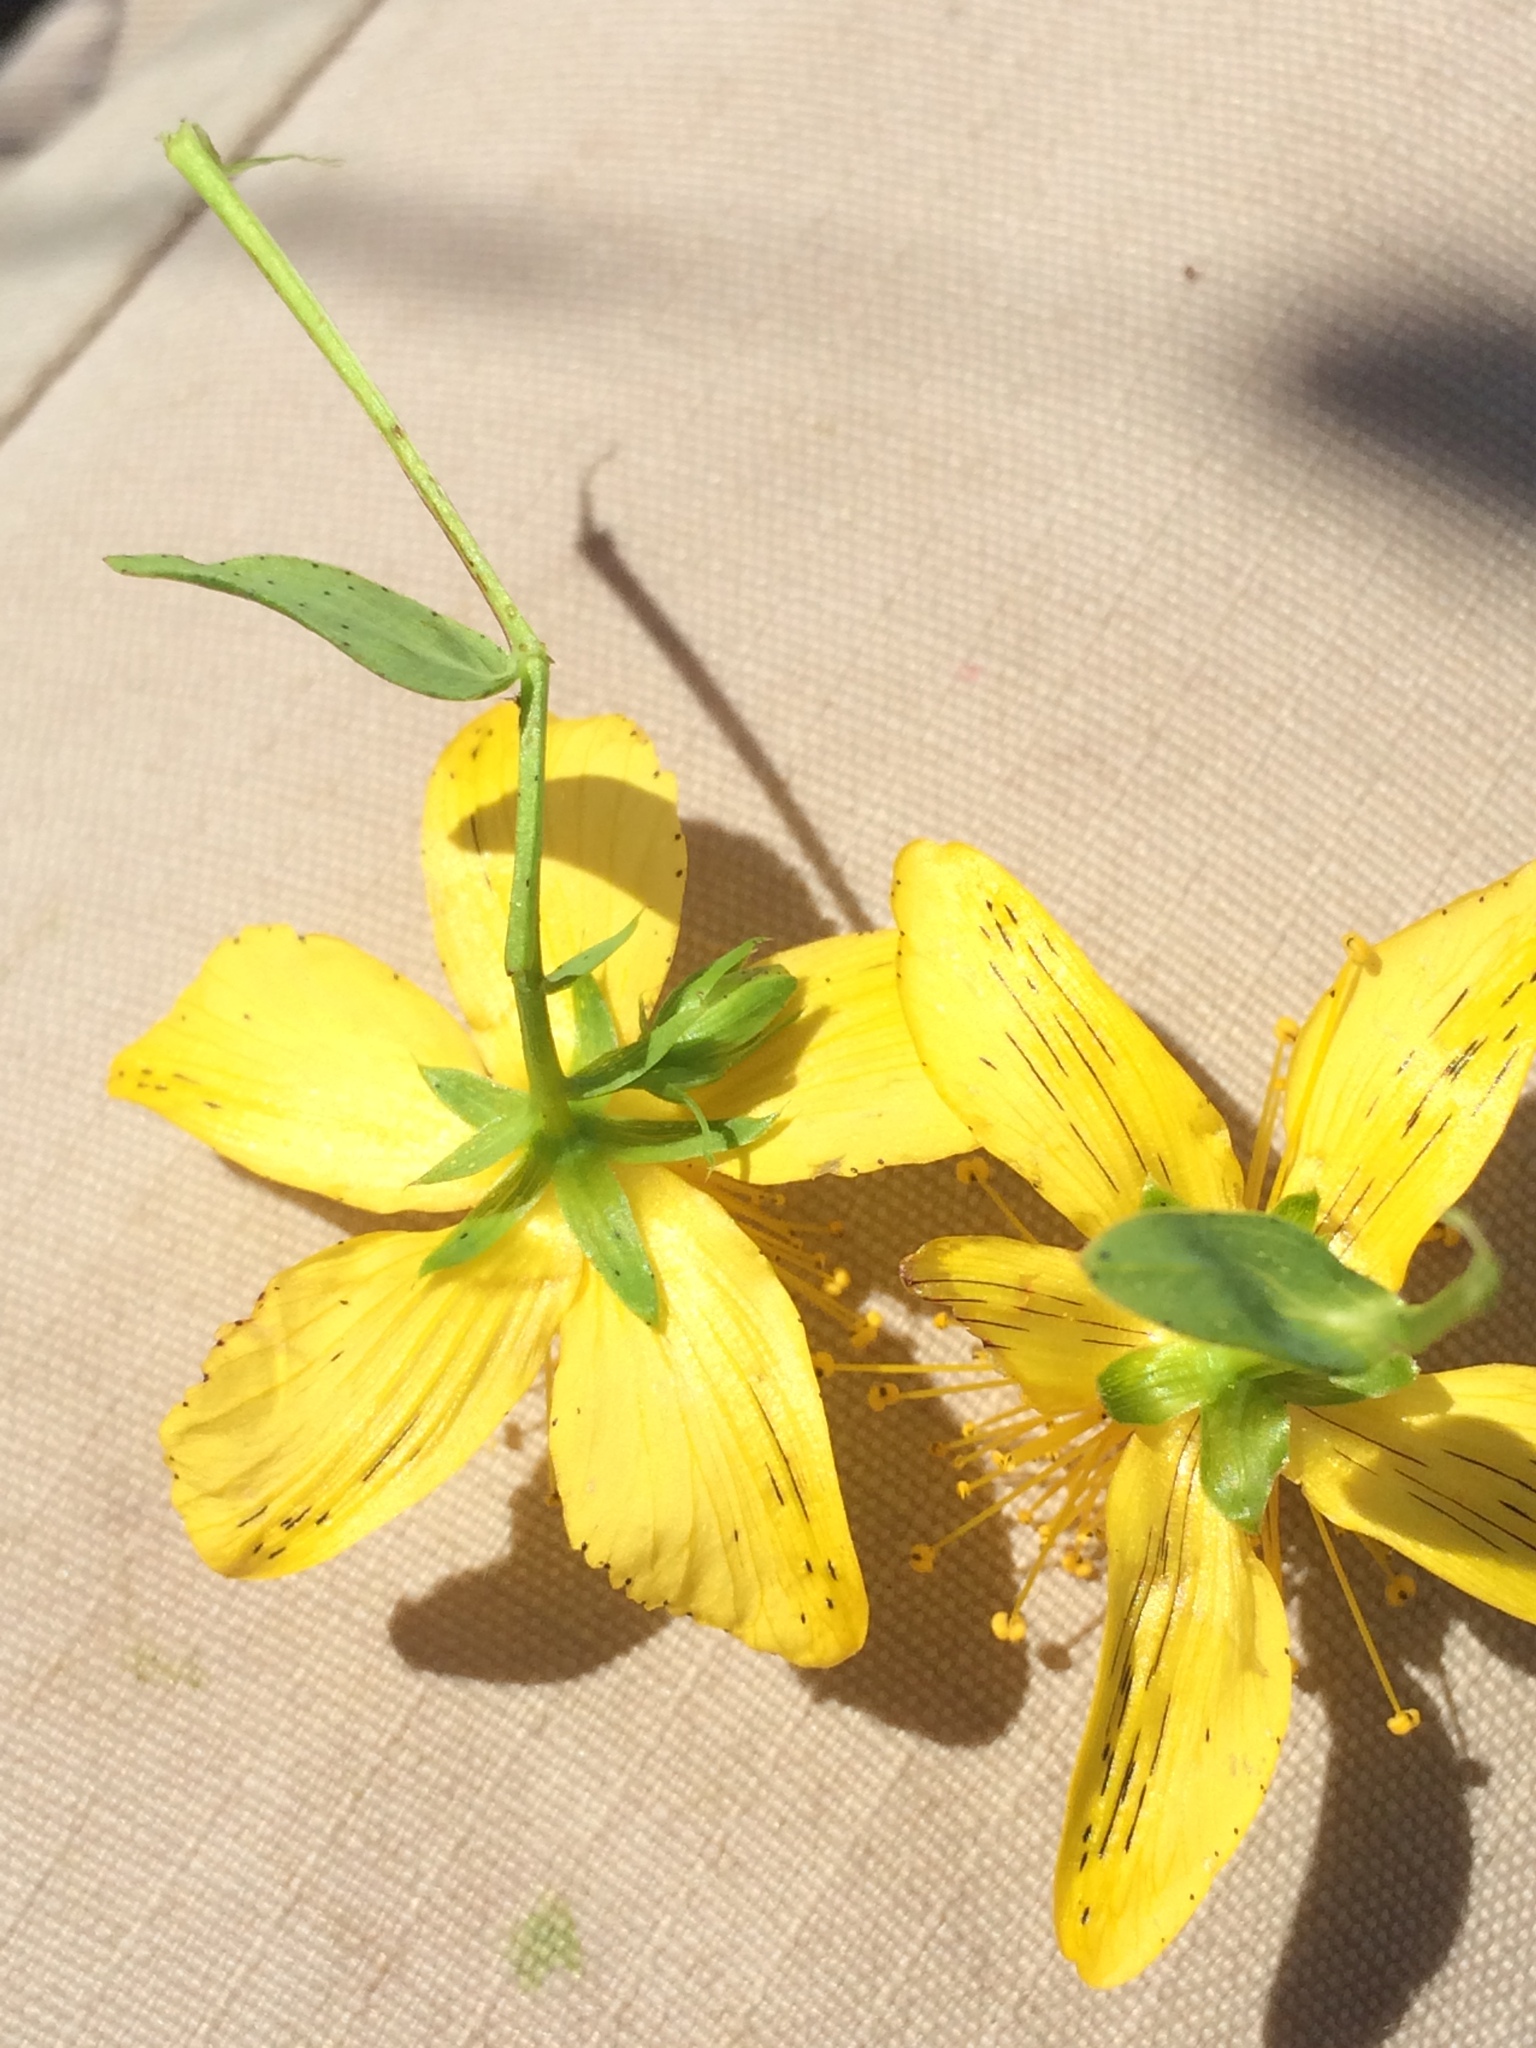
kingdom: Plantae
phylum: Tracheophyta
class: Magnoliopsida
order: Malpighiales
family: Hypericaceae
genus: Hypericum
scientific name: Hypericum maculatum
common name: Imperforate st. john's-wort
